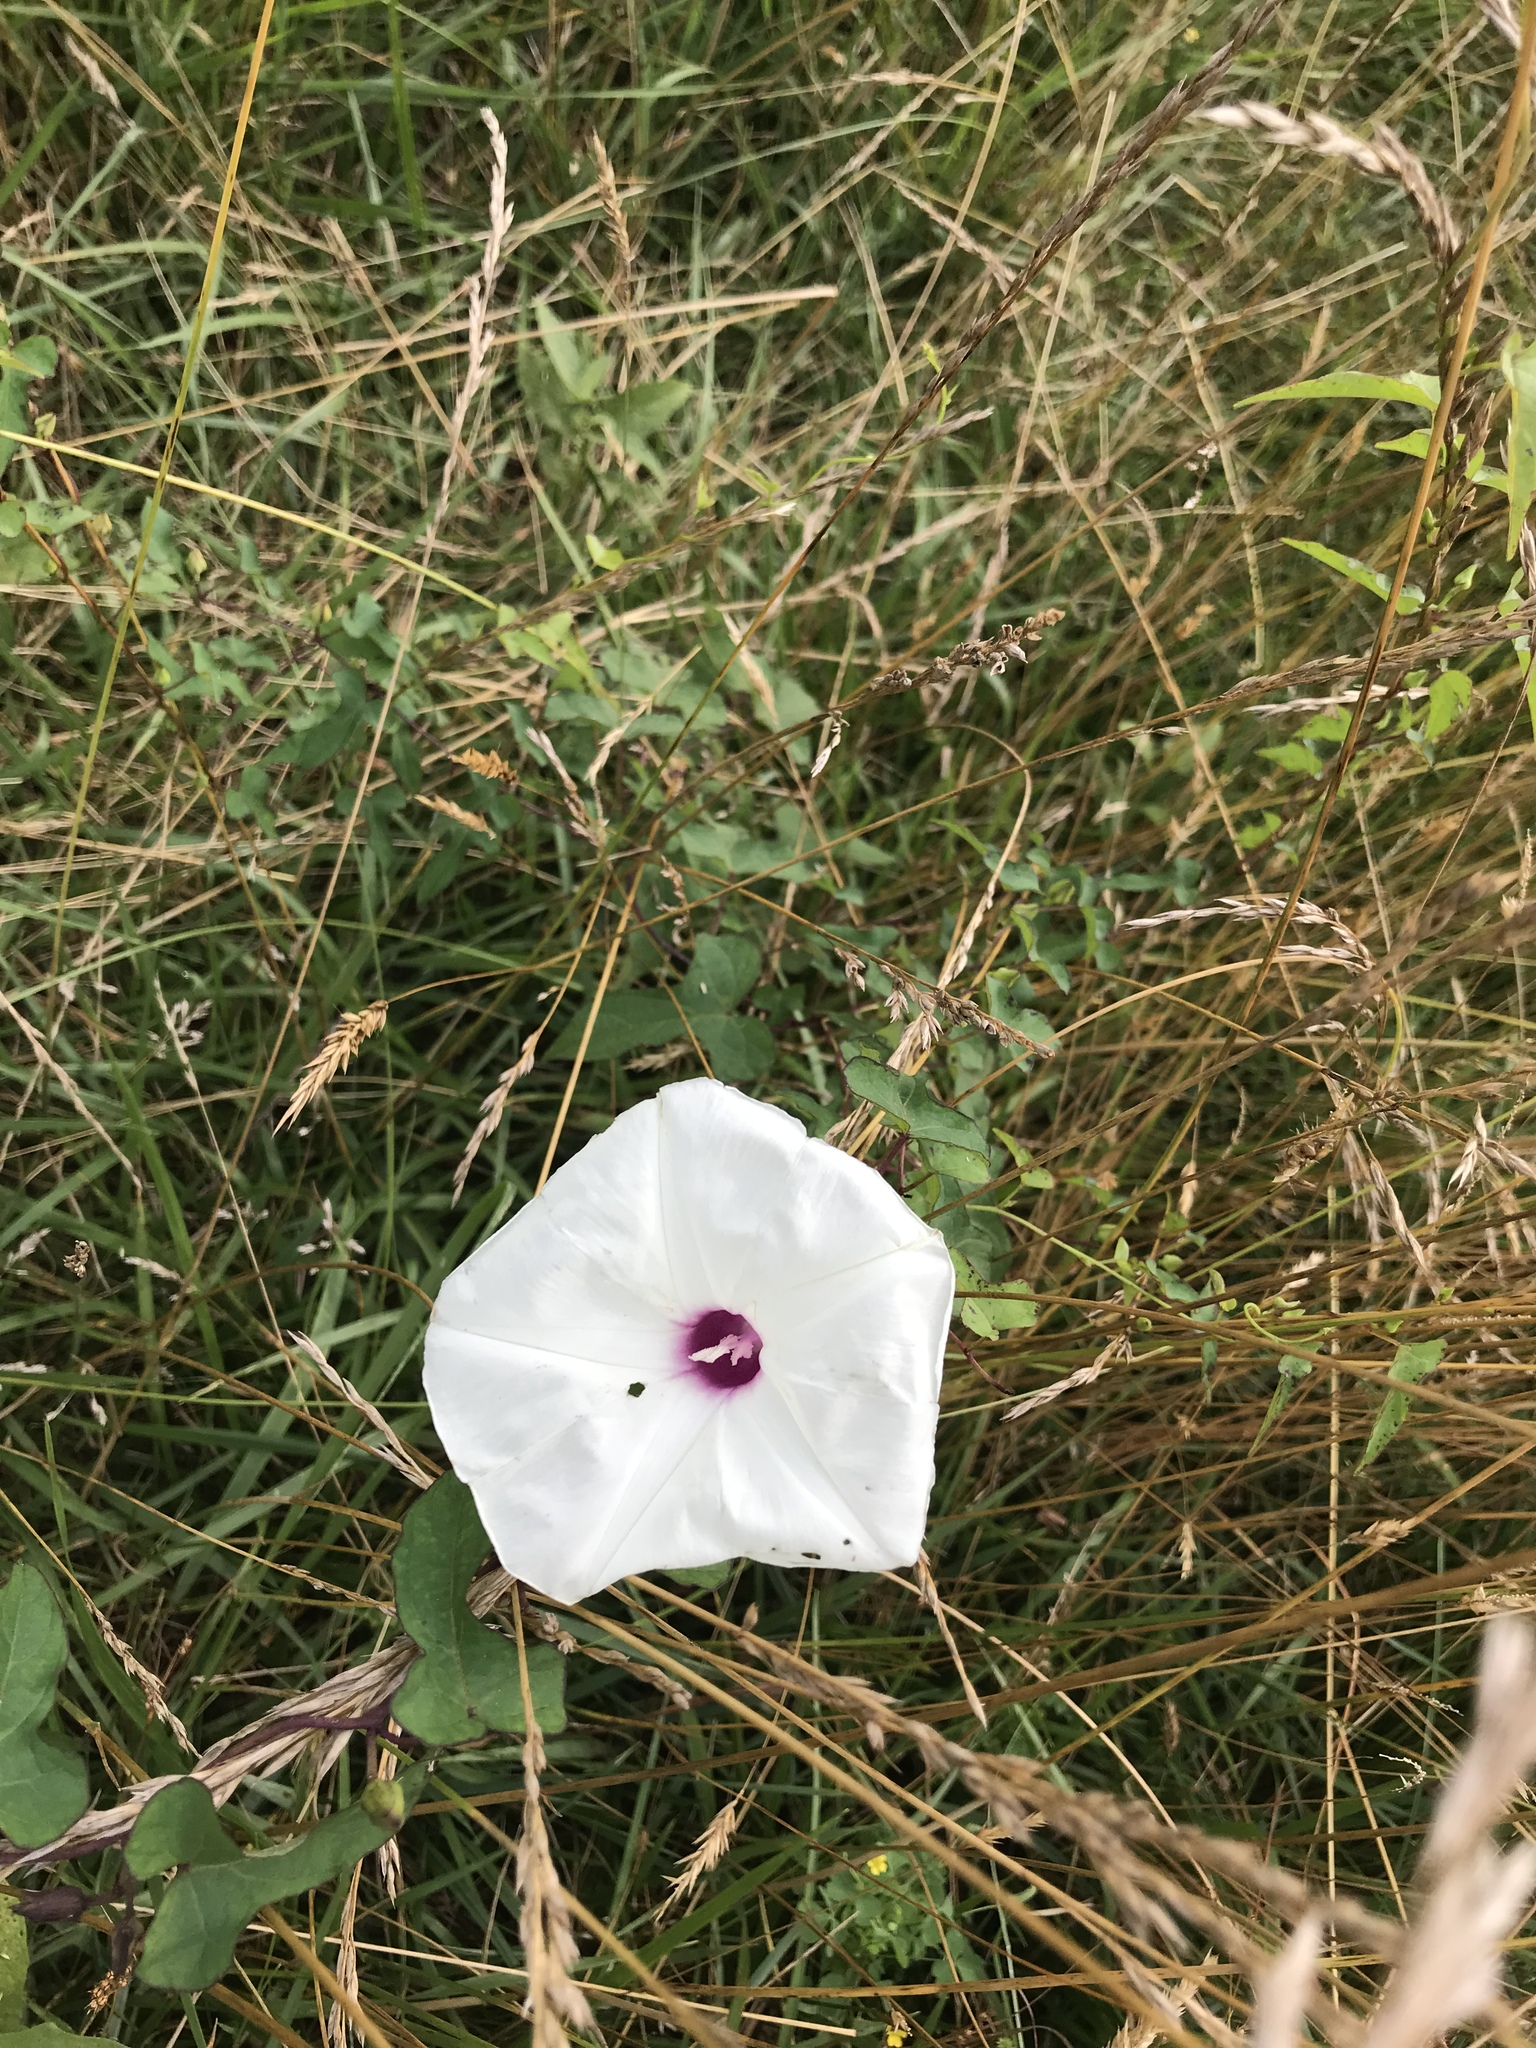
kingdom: Plantae
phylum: Tracheophyta
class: Magnoliopsida
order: Solanales
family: Convolvulaceae
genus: Ipomoea
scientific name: Ipomoea pandurata
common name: Man-of-the-earth
